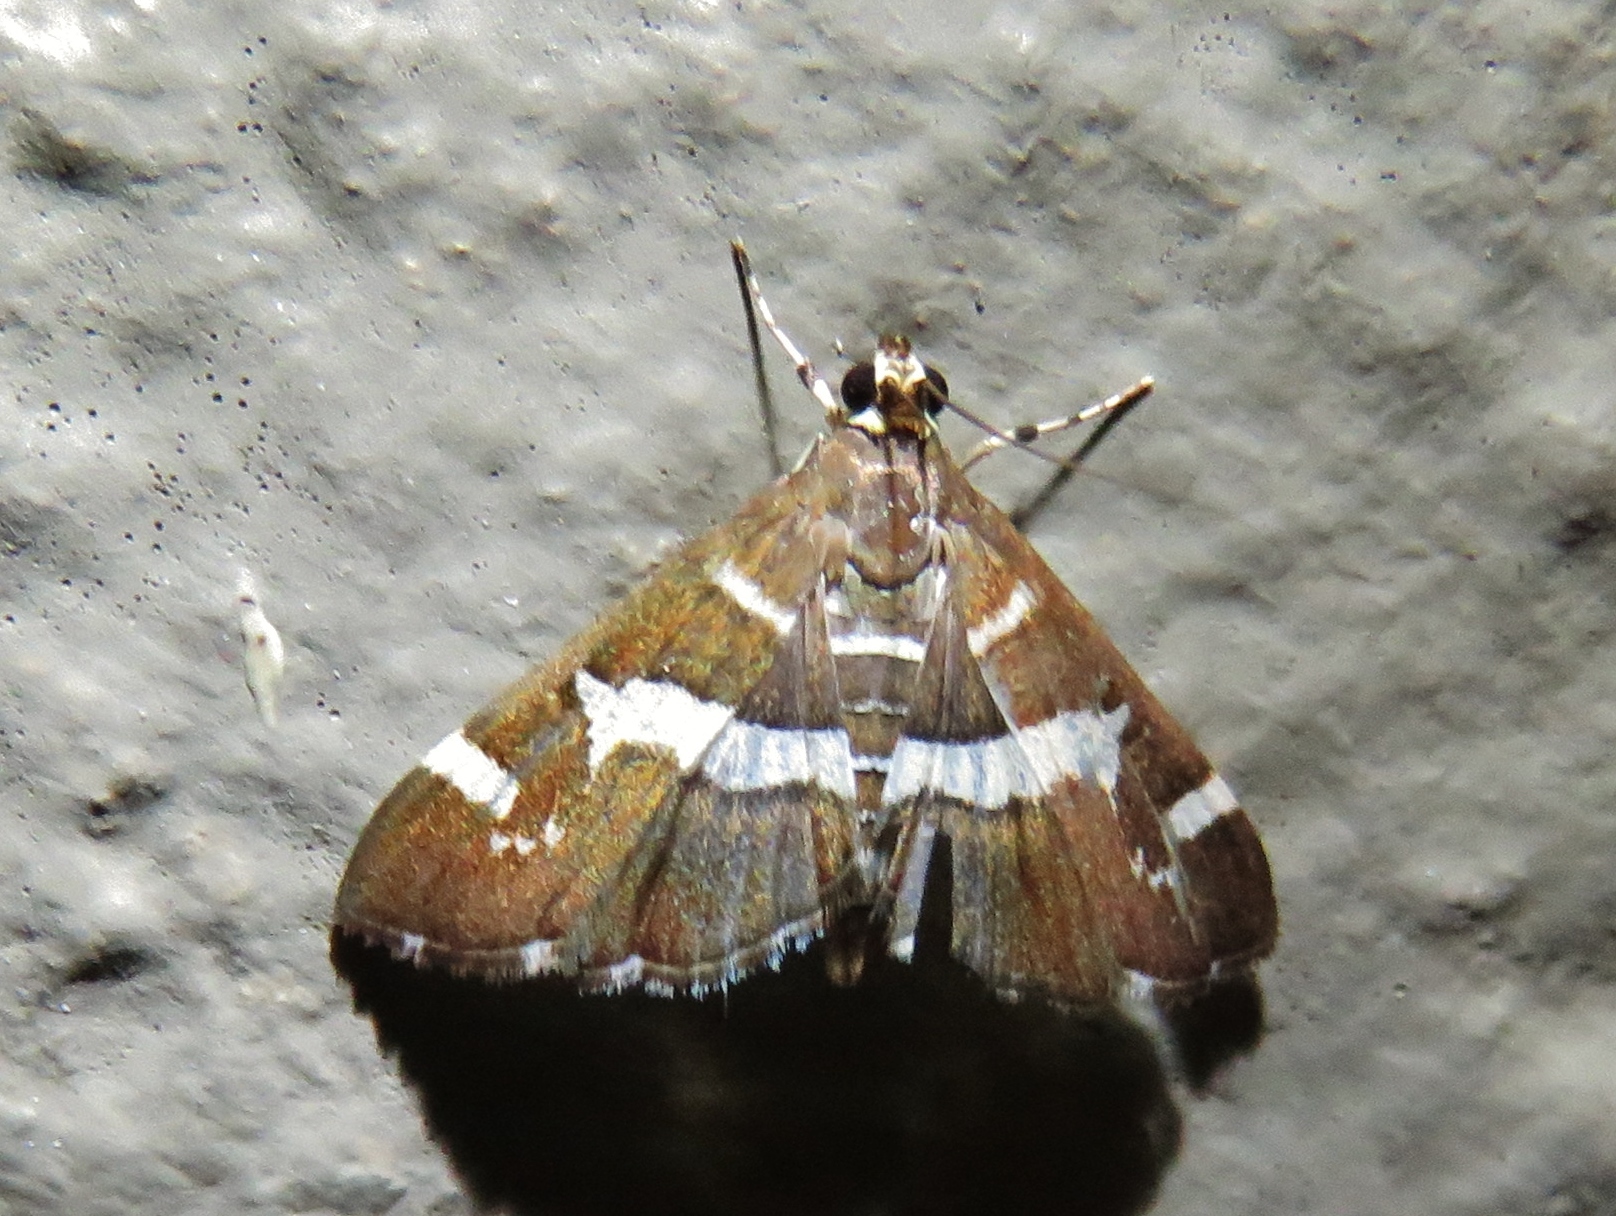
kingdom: Animalia
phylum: Arthropoda
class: Insecta
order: Lepidoptera
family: Crambidae
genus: Spoladea
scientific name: Spoladea recurvalis
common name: Beet webworm moth
